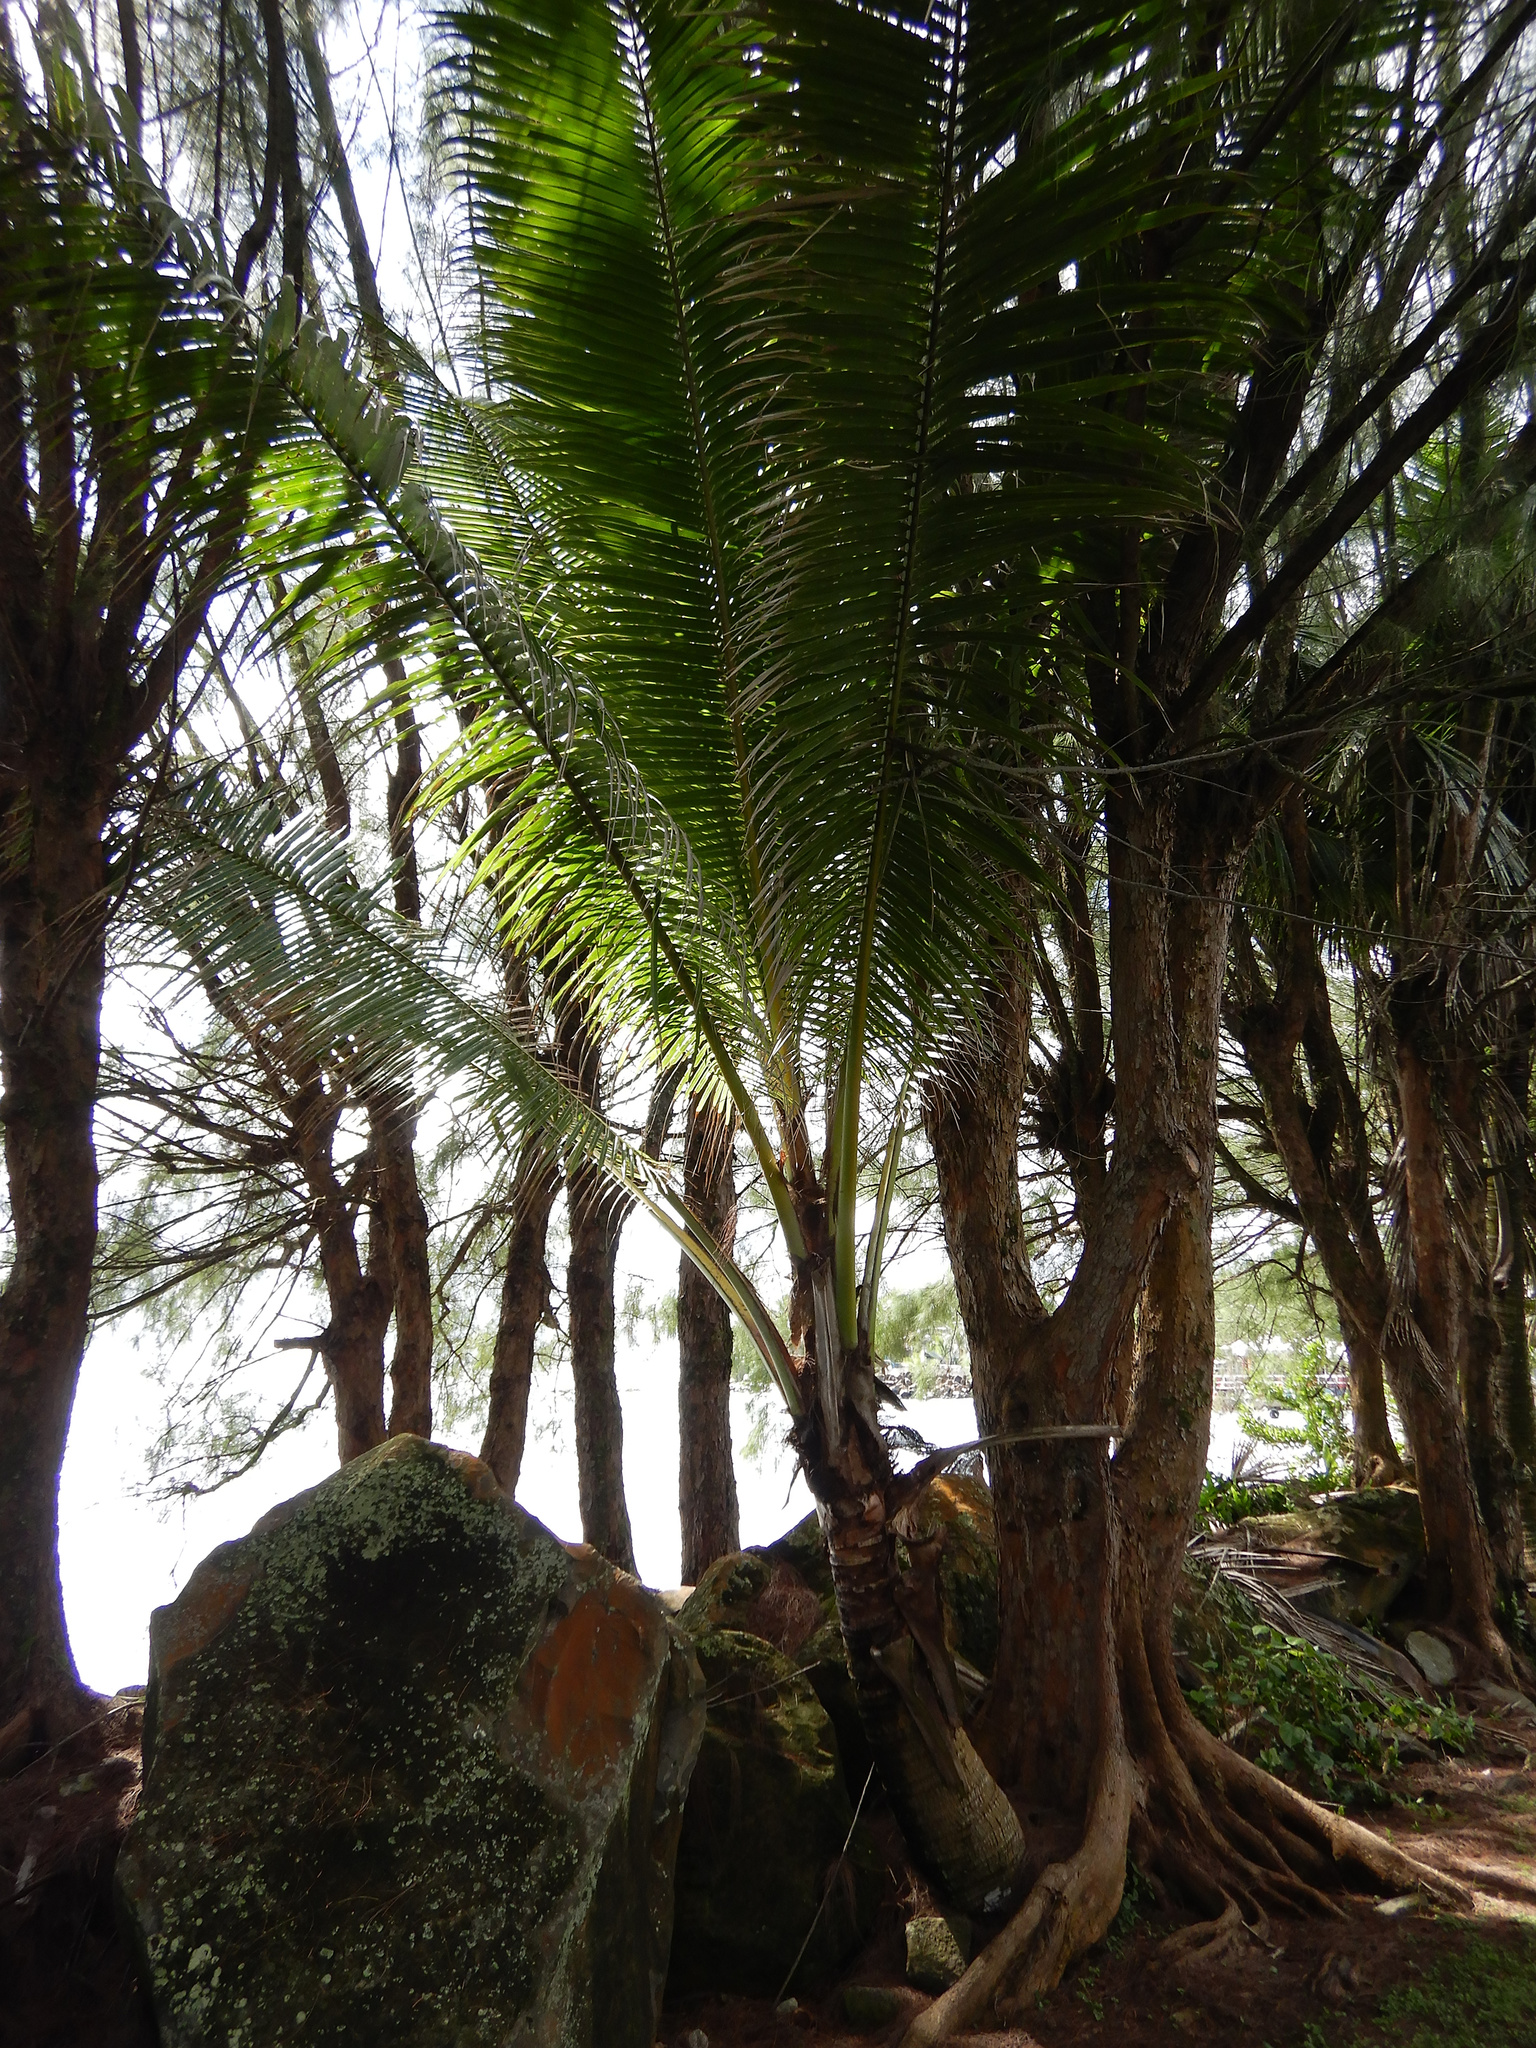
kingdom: Plantae
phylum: Tracheophyta
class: Liliopsida
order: Arecales
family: Arecaceae
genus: Cocos
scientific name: Cocos nucifera
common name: Coconut palm
